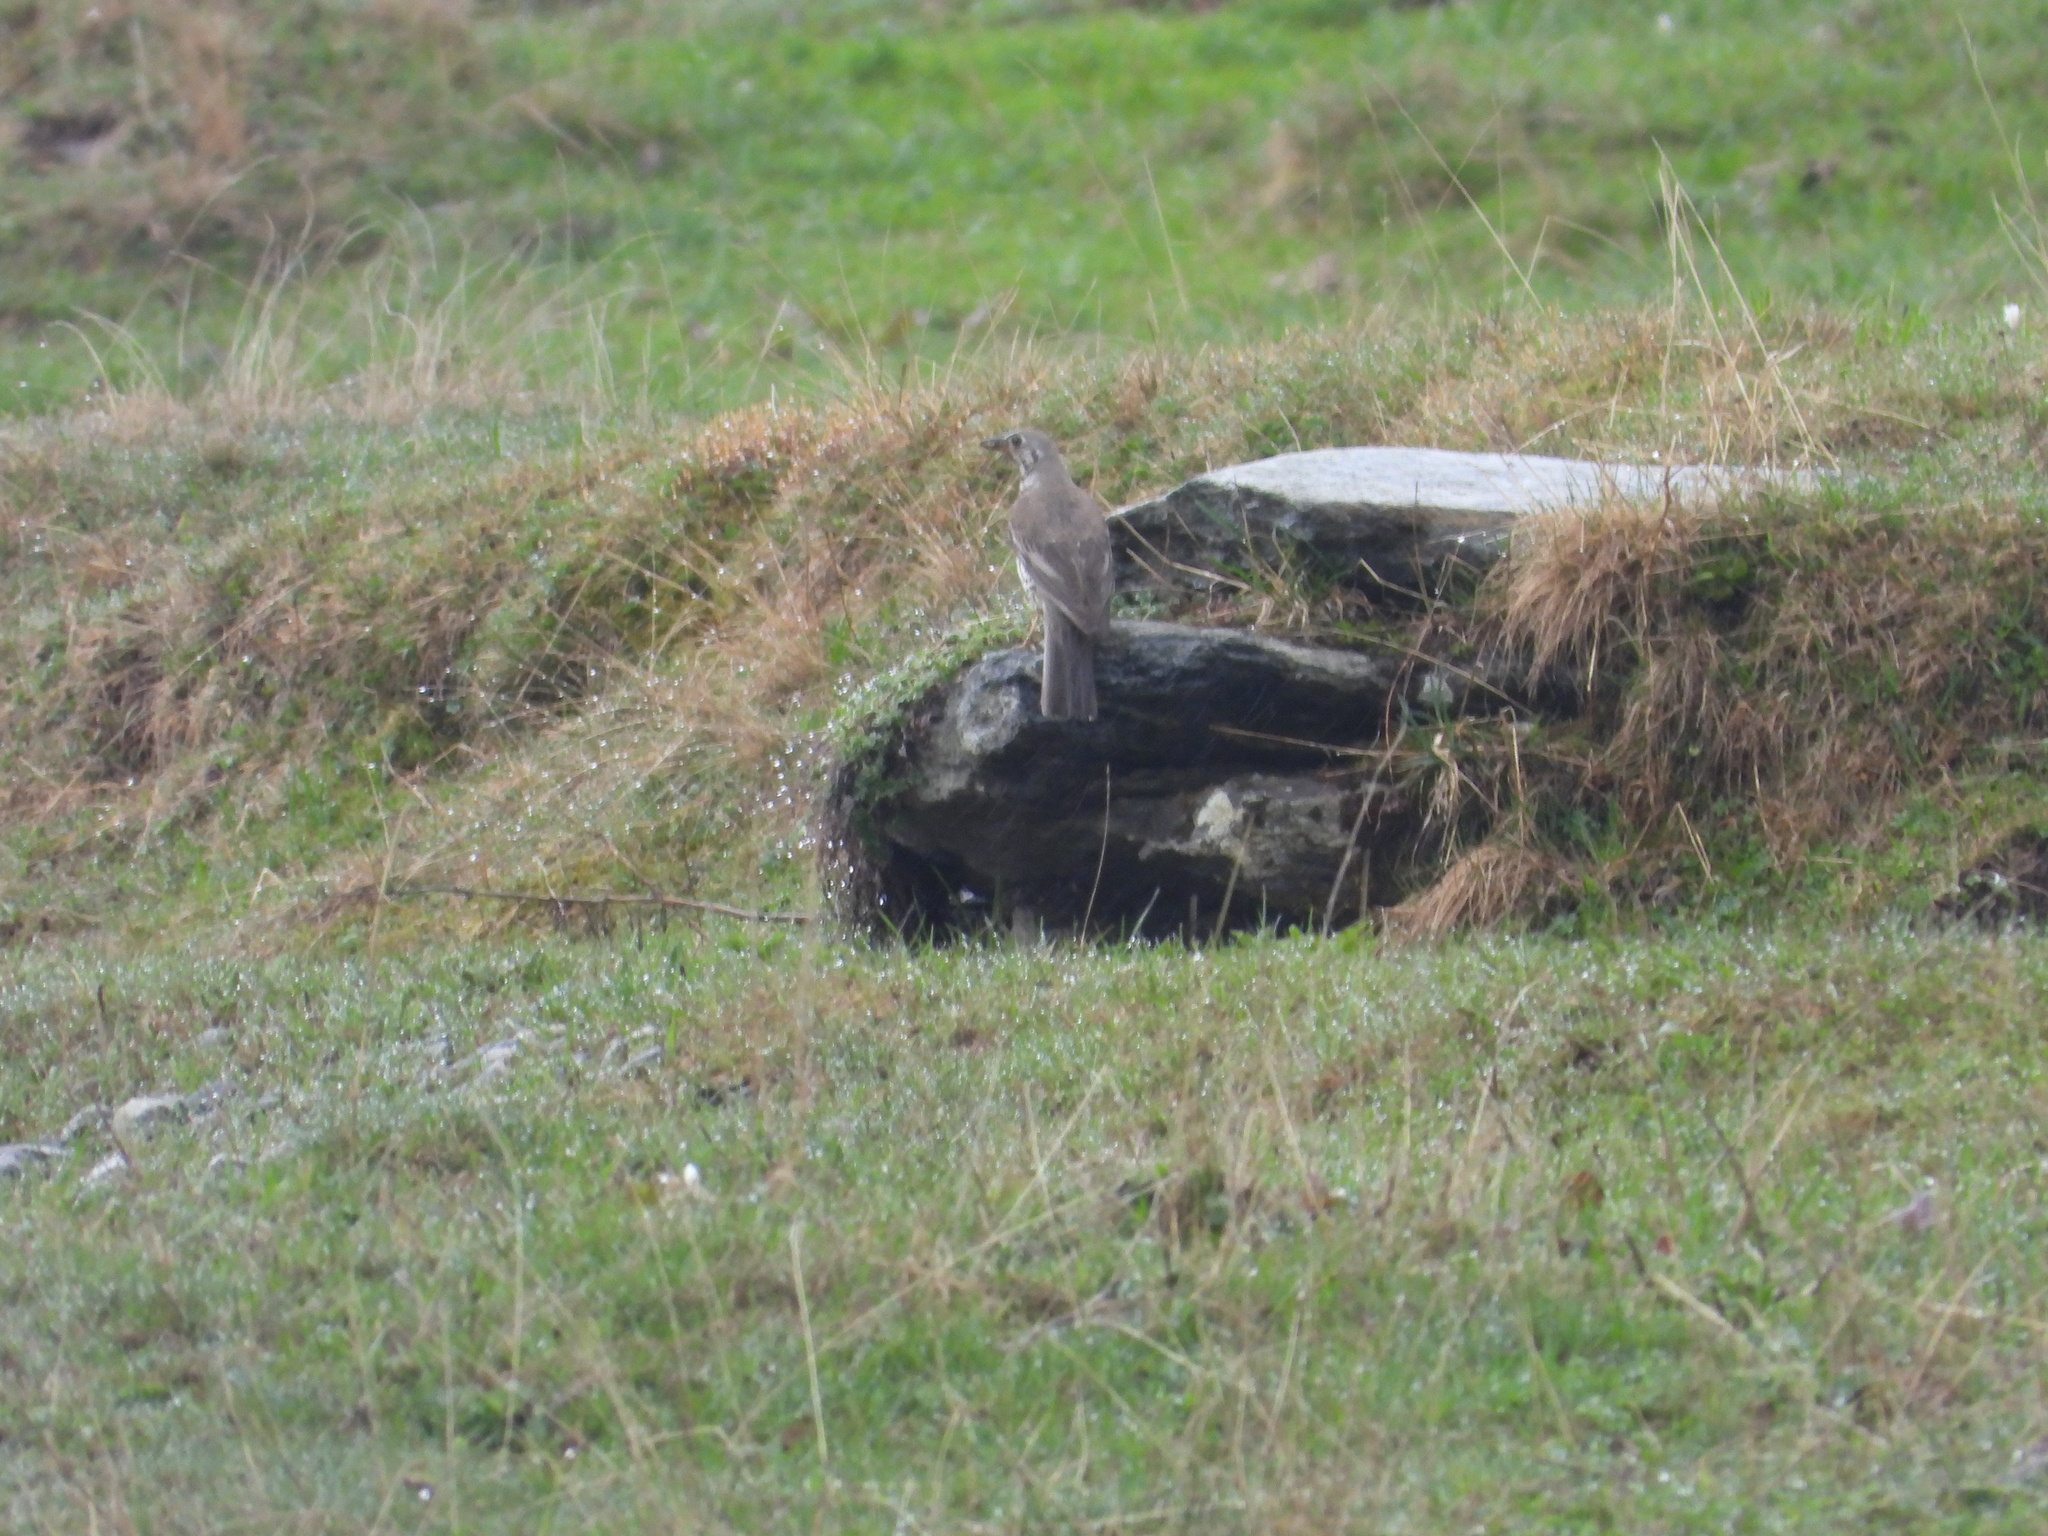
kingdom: Animalia
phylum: Chordata
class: Aves
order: Passeriformes
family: Turdidae
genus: Turdus
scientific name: Turdus viscivorus
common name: Mistle thrush
